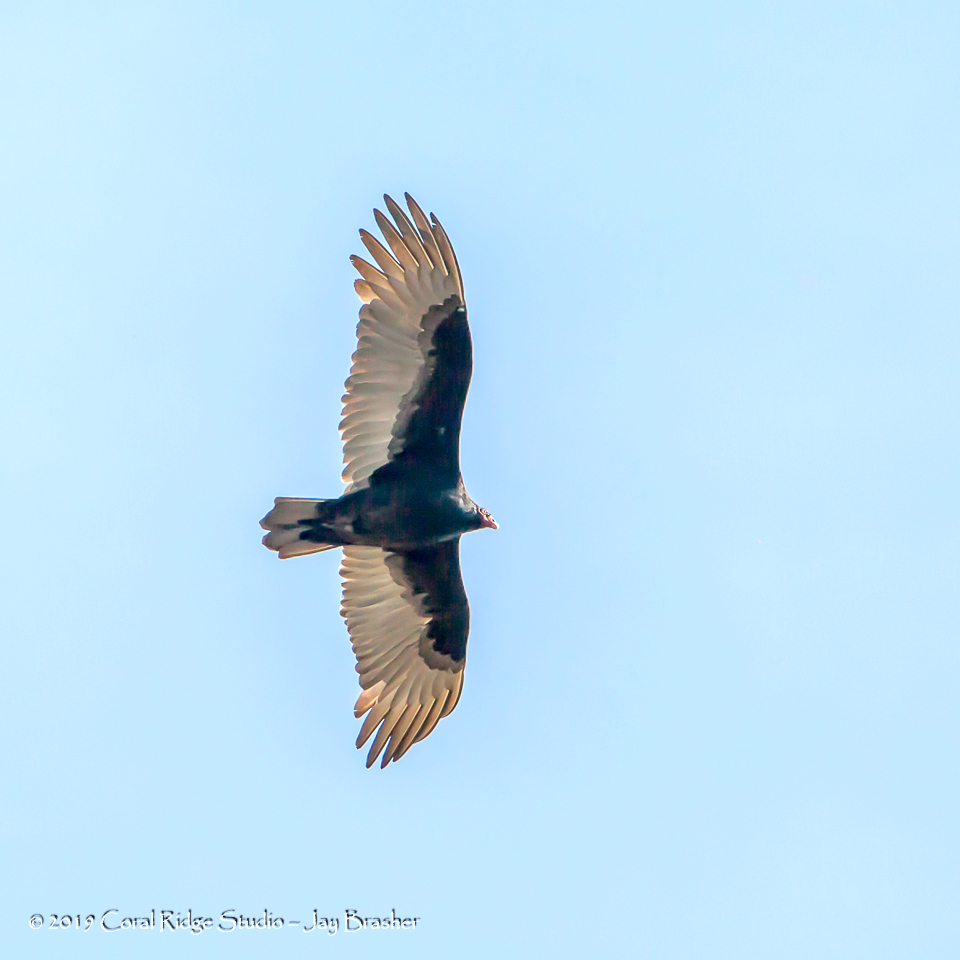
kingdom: Animalia
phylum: Chordata
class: Aves
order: Accipitriformes
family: Cathartidae
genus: Cathartes
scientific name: Cathartes aura
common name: Turkey vulture
